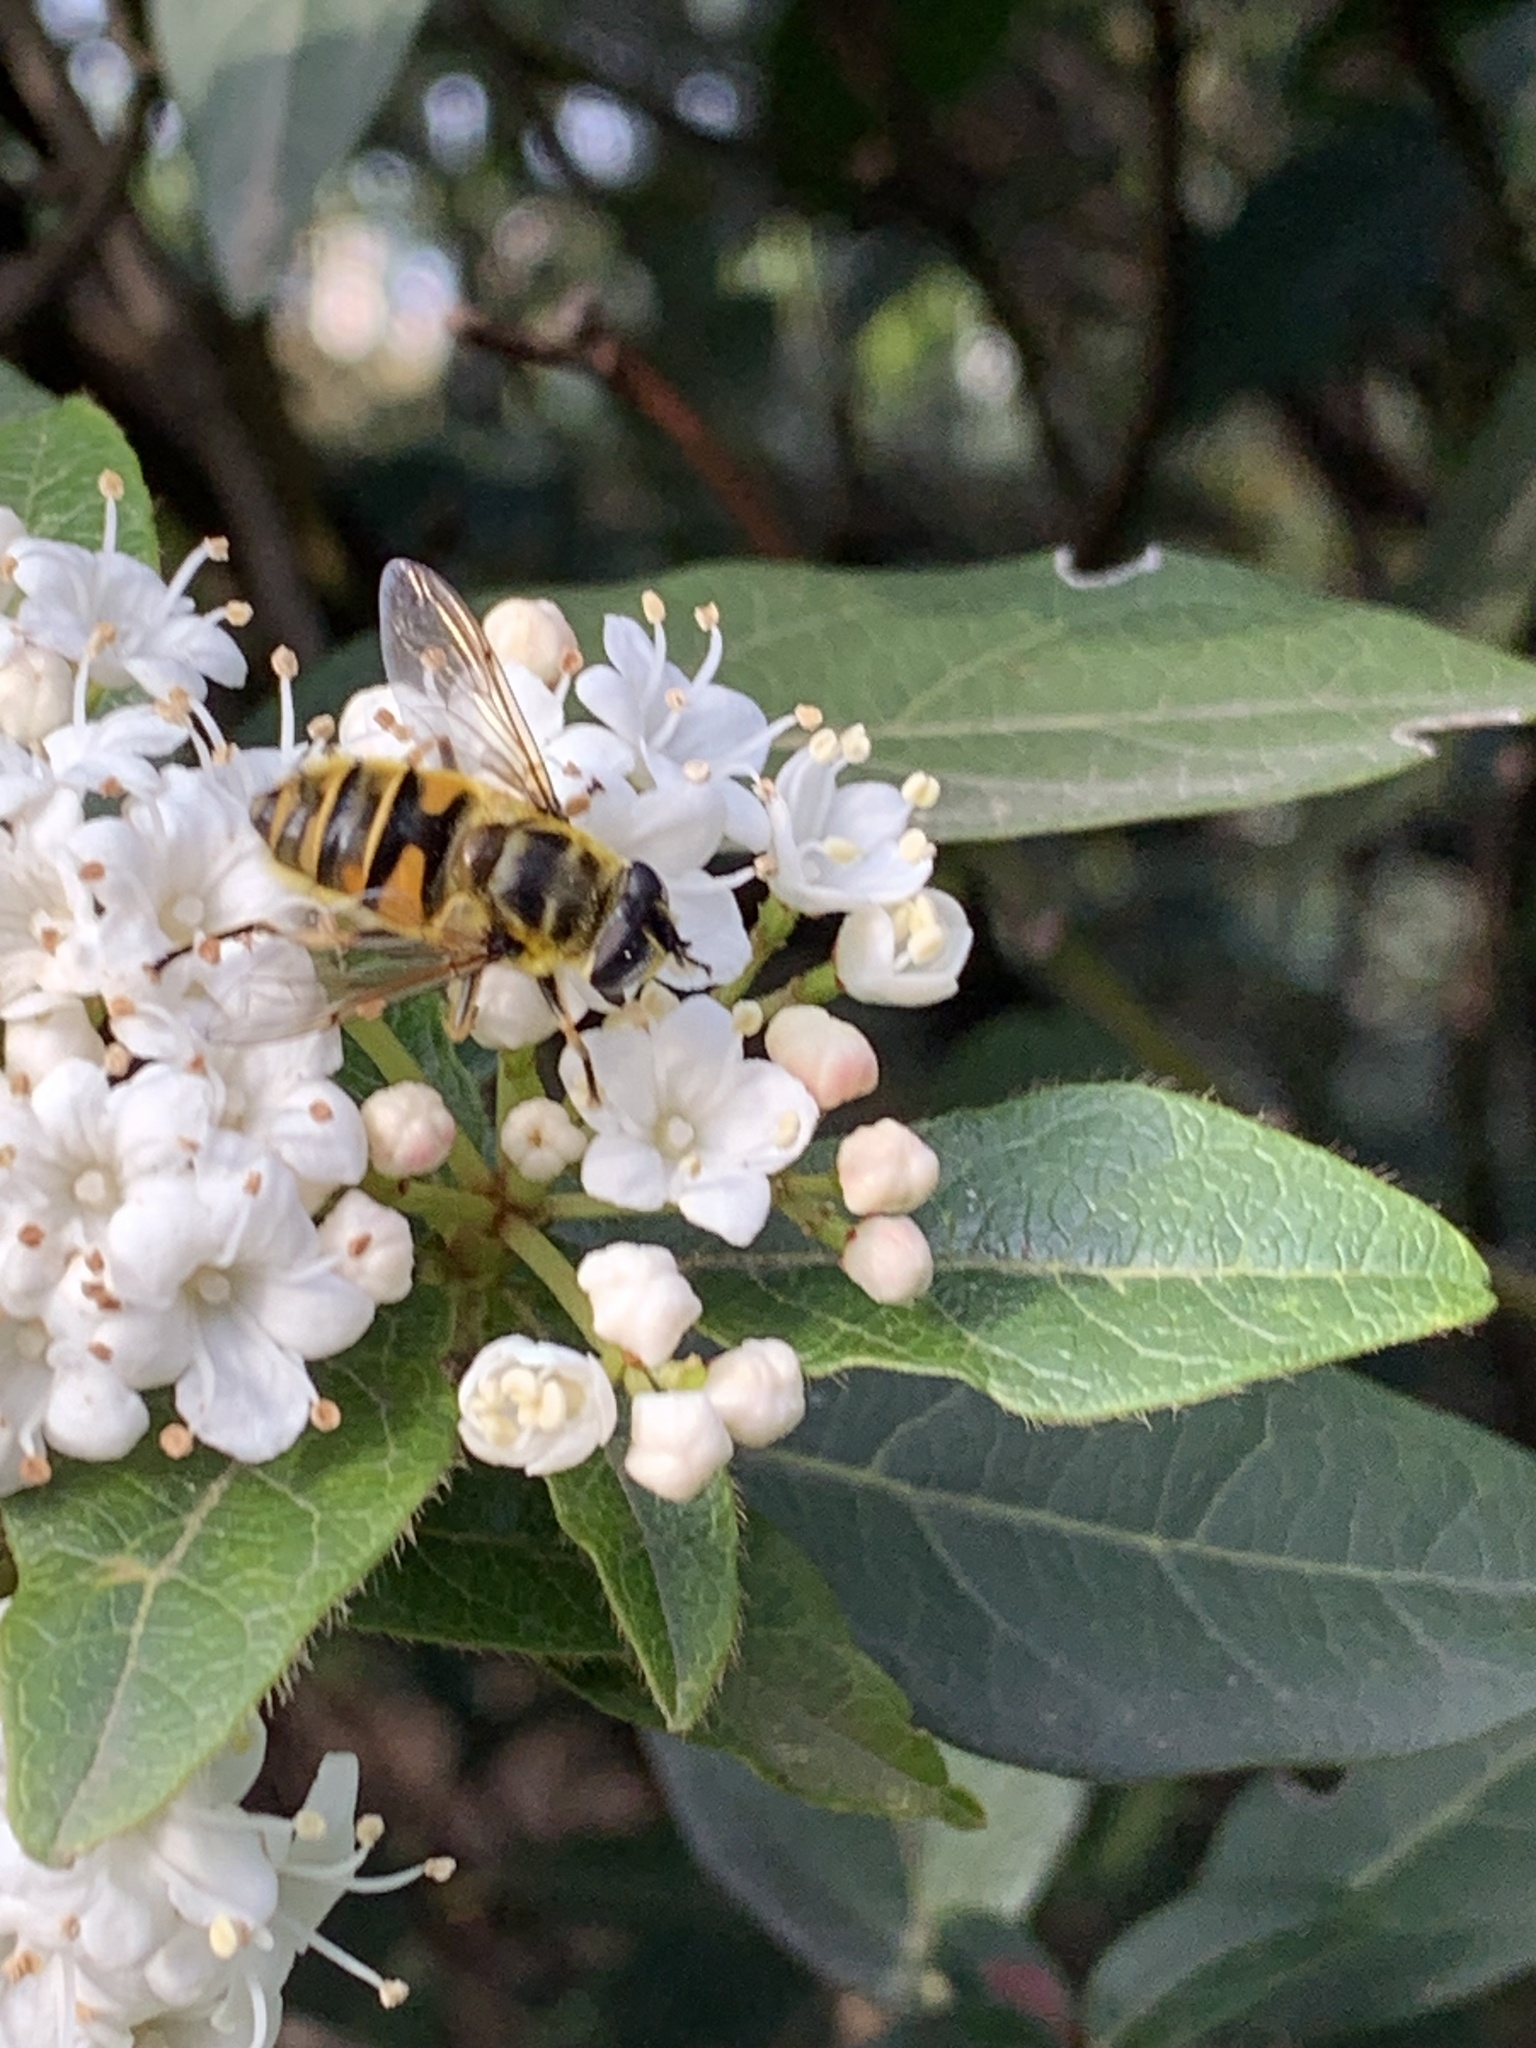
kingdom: Animalia
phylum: Arthropoda
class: Insecta
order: Diptera
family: Syrphidae
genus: Myathropa
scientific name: Myathropa florea
